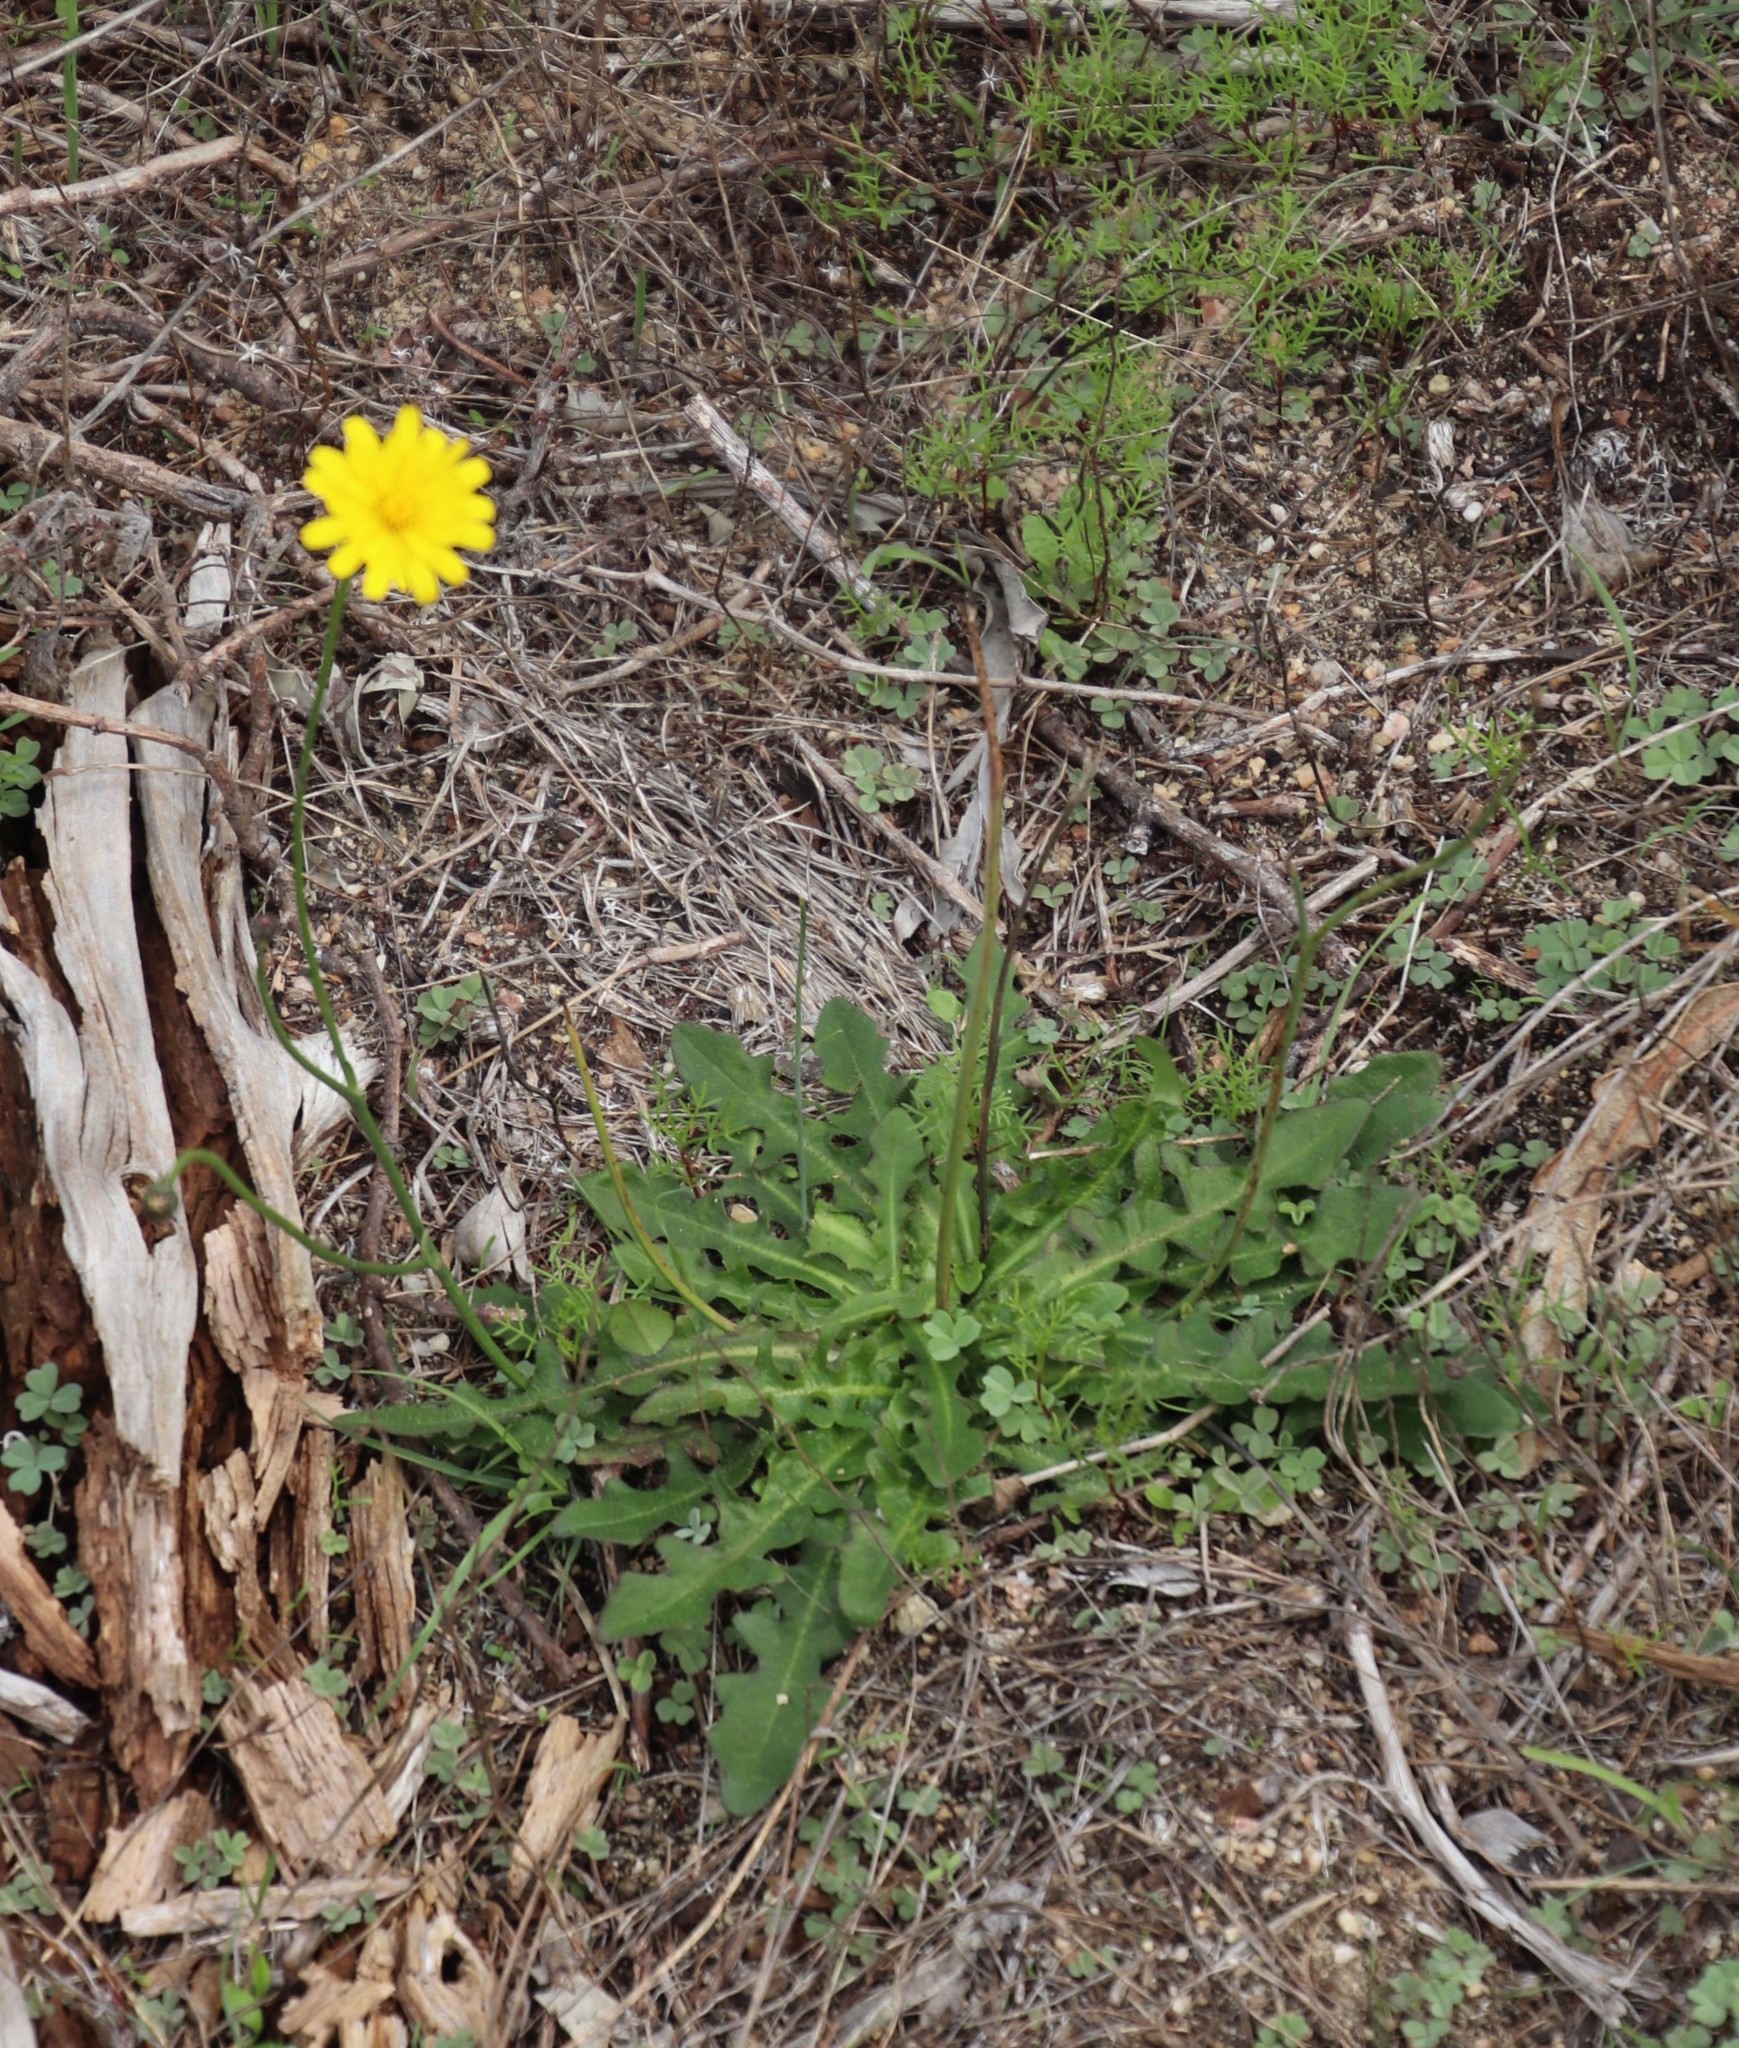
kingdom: Plantae
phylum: Tracheophyta
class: Magnoliopsida
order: Asterales
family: Asteraceae
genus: Hypochaeris
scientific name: Hypochaeris radicata
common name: Flatweed
